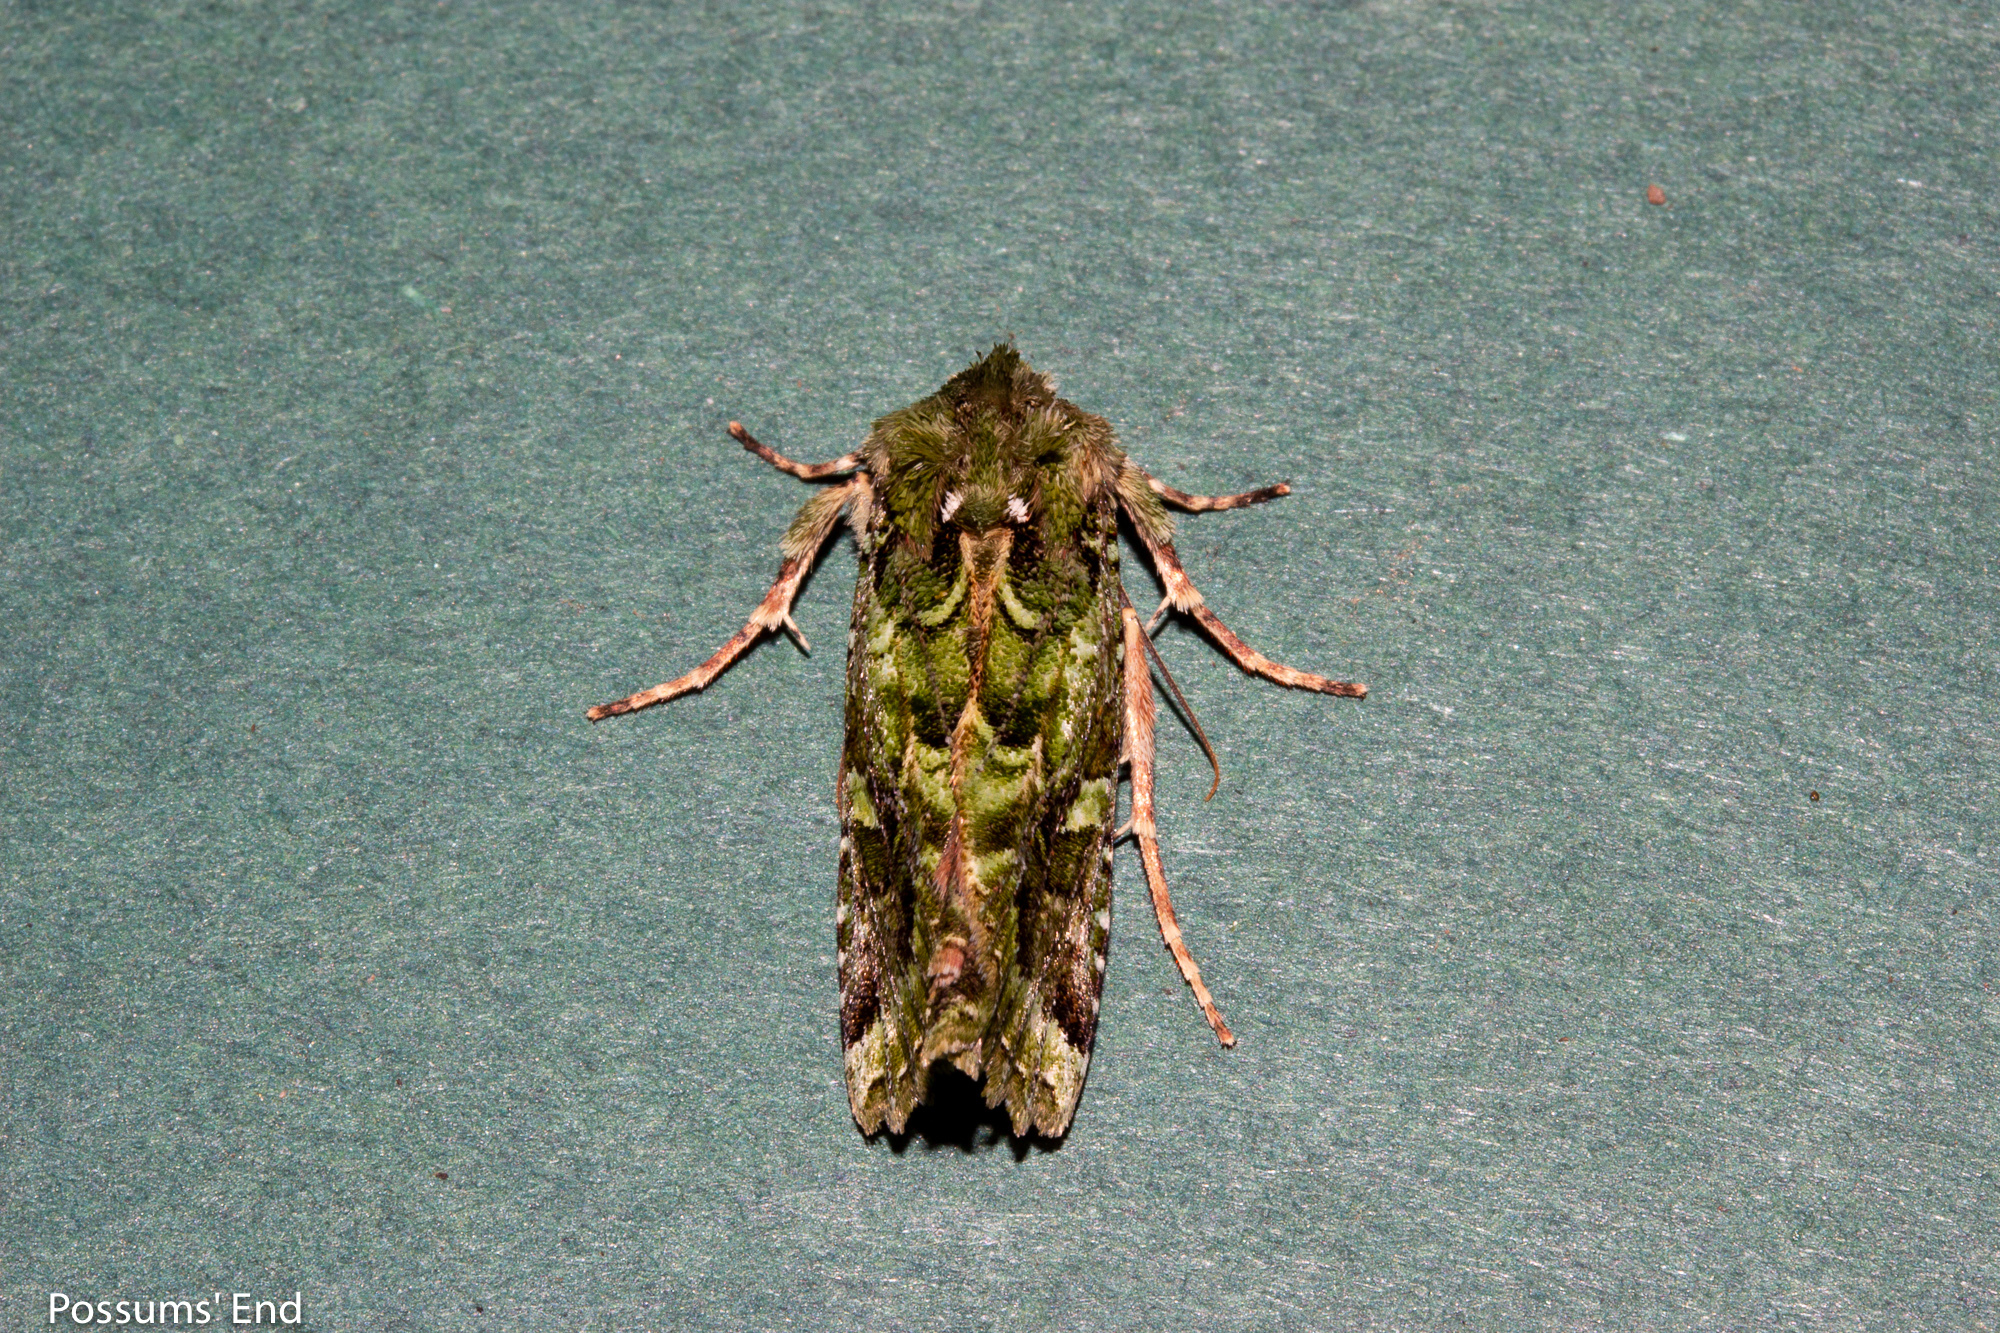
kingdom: Animalia
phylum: Arthropoda
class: Insecta
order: Lepidoptera
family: Noctuidae
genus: Feredayia
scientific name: Feredayia grammosa
